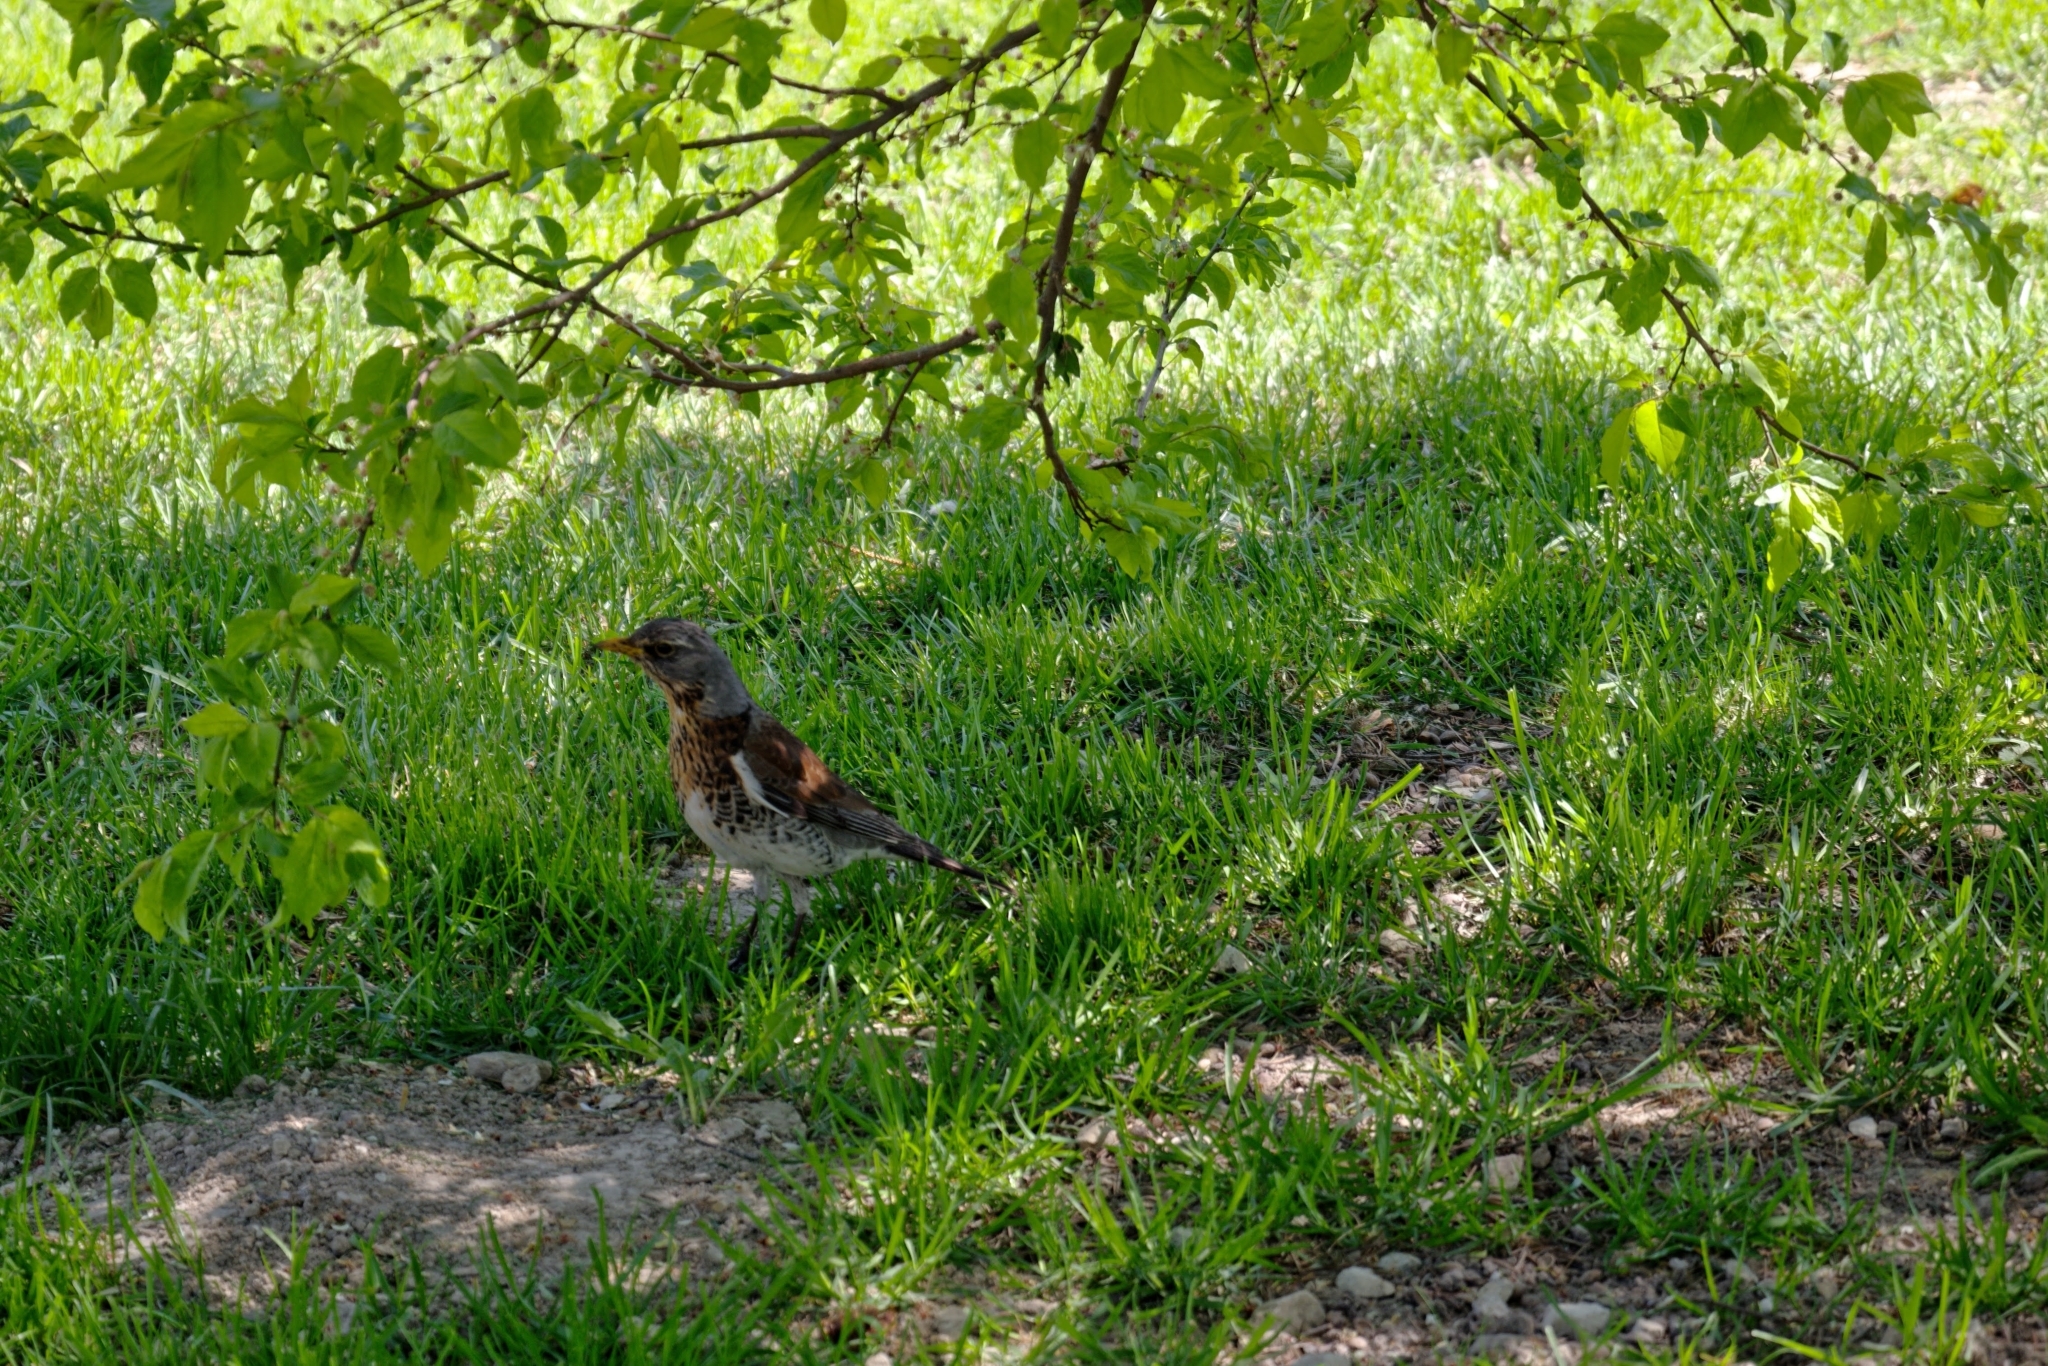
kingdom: Animalia
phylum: Chordata
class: Aves
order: Passeriformes
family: Turdidae
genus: Turdus
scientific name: Turdus pilaris
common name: Fieldfare
